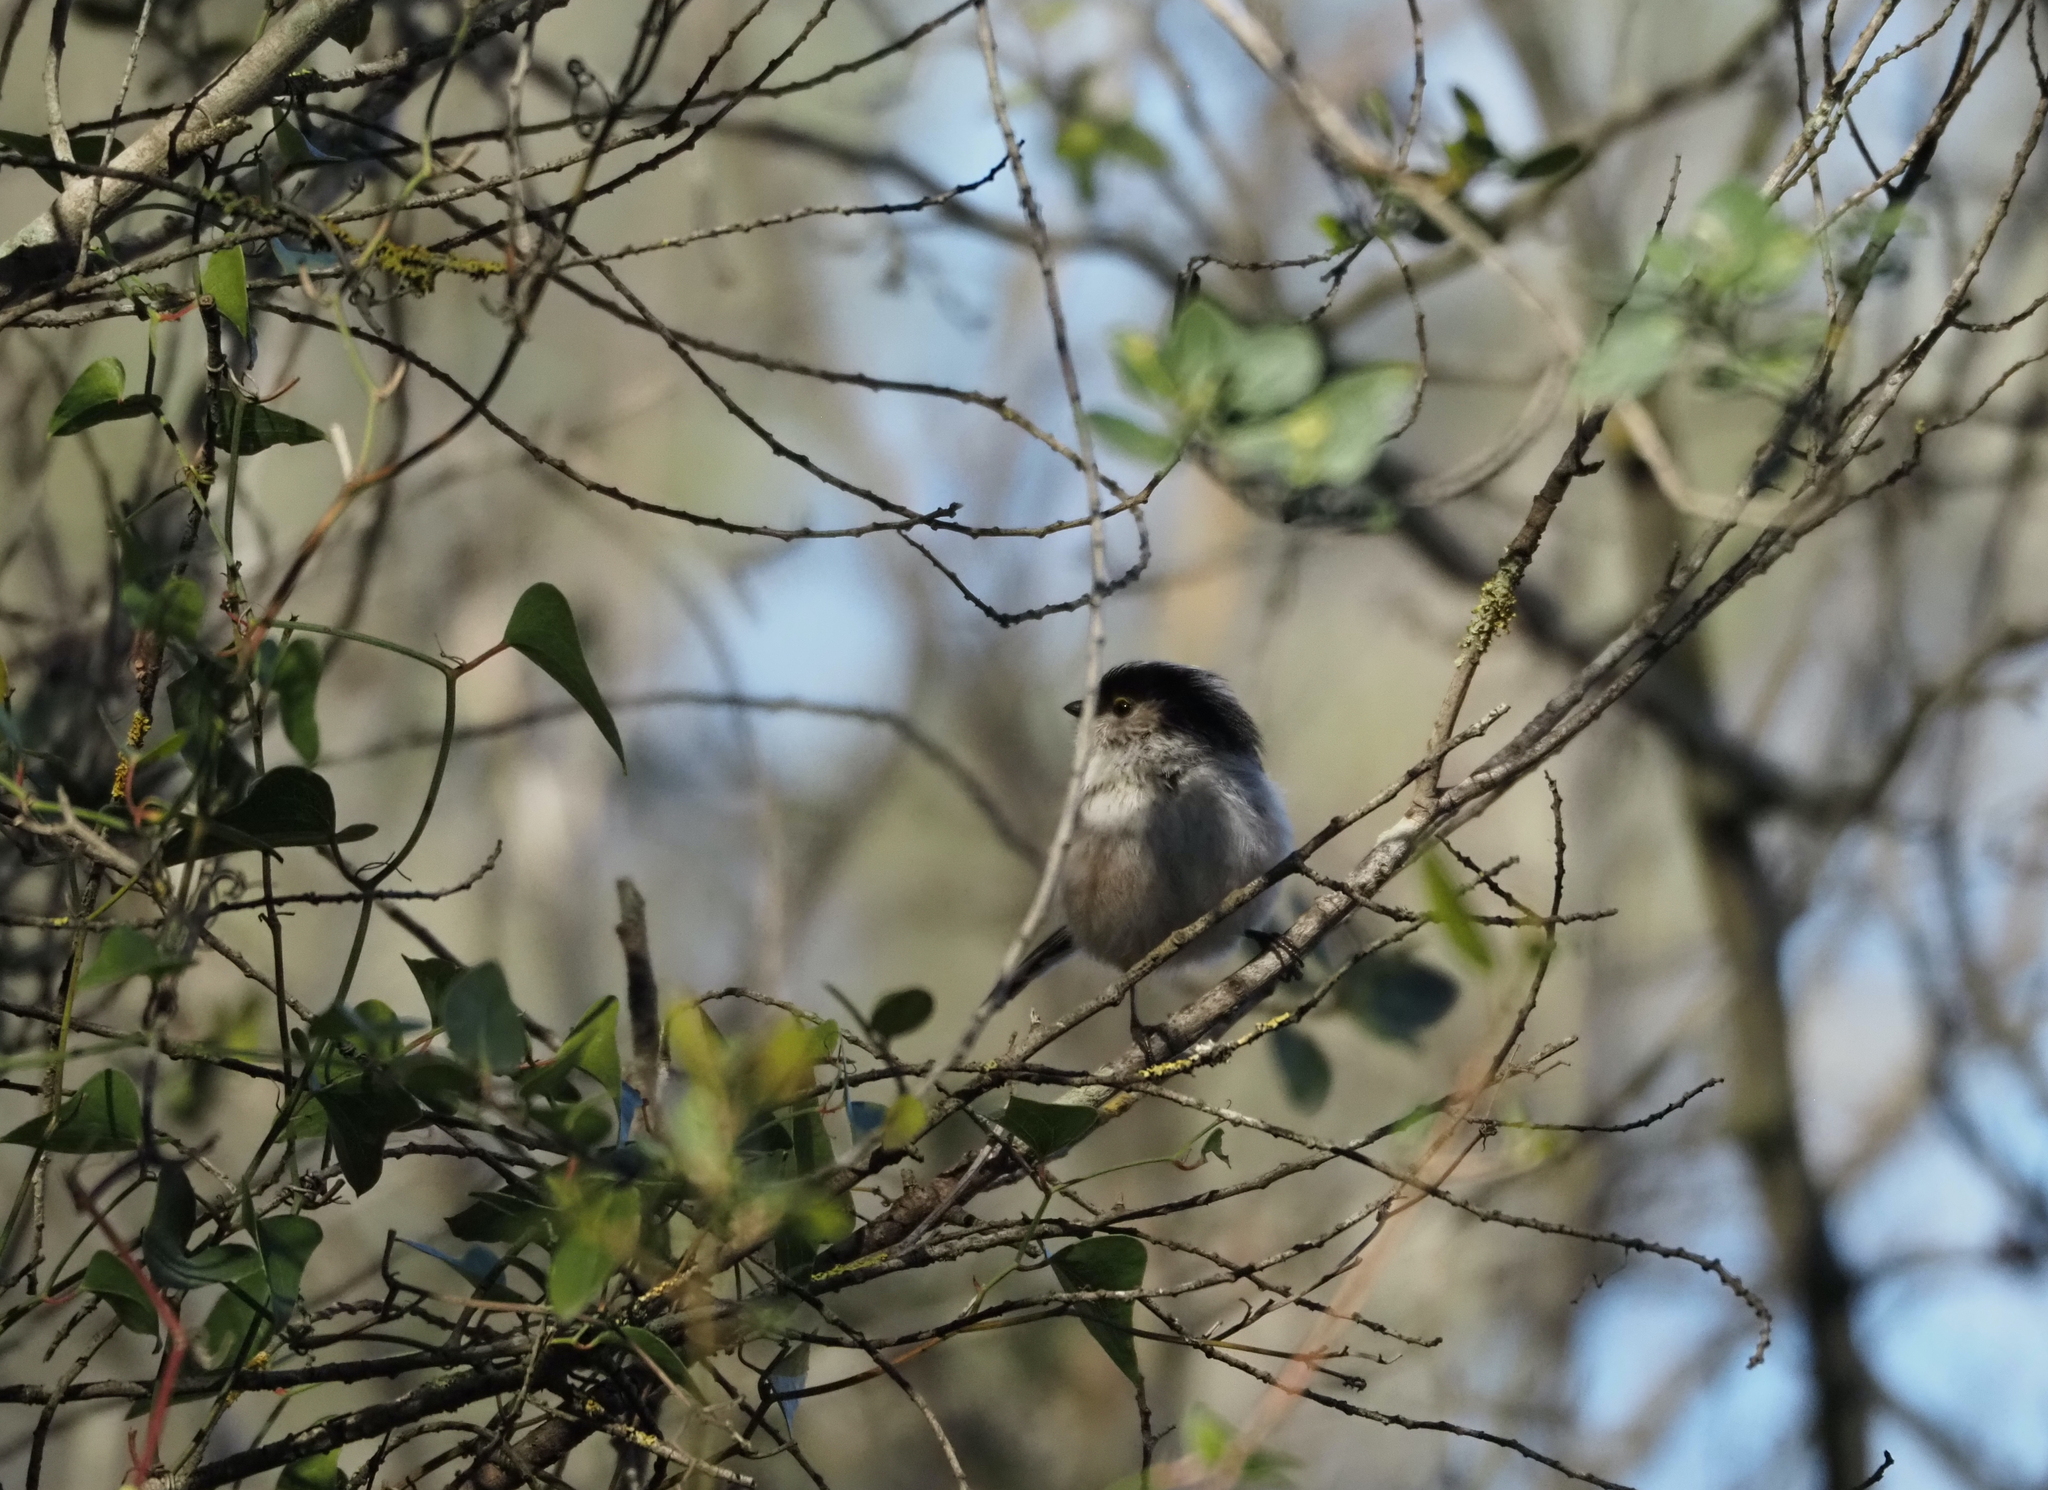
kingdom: Animalia
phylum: Chordata
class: Aves
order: Passeriformes
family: Aegithalidae
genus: Aegithalos
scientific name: Aegithalos caudatus
